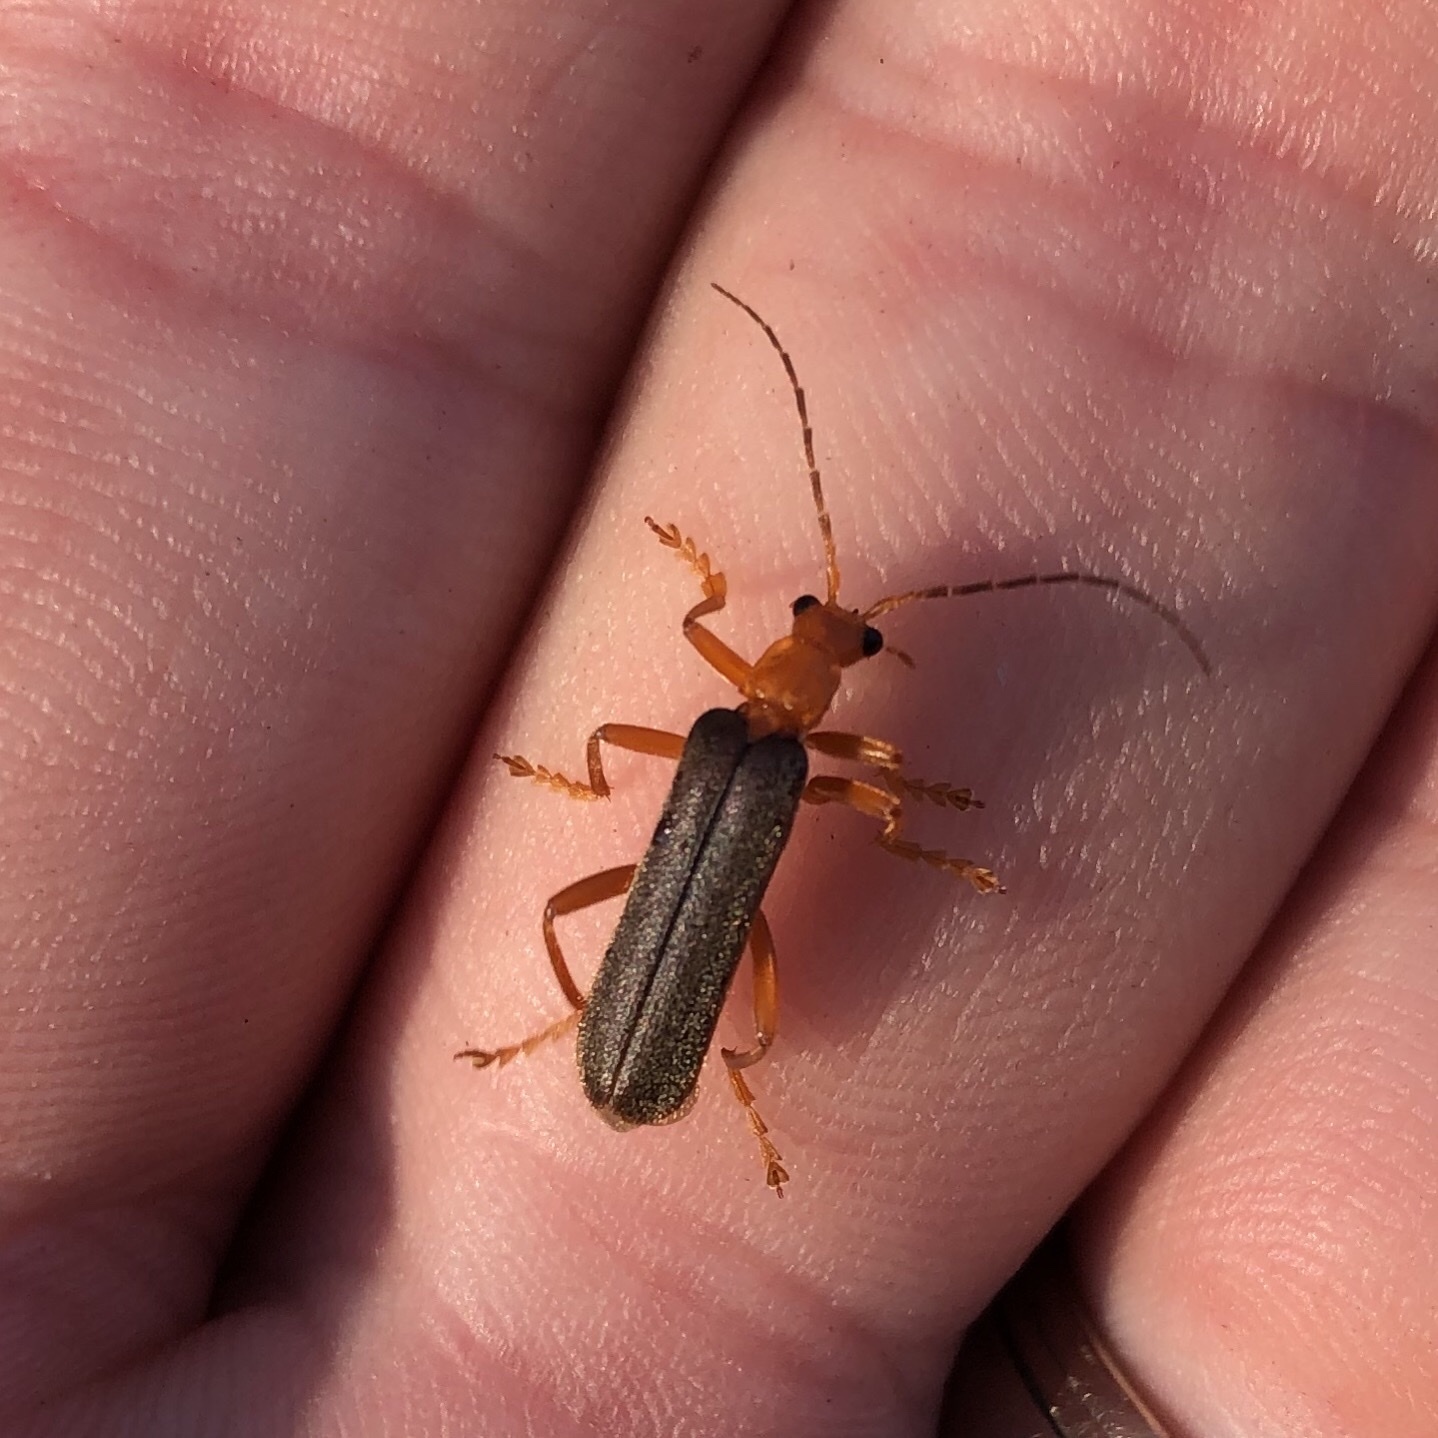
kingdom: Animalia
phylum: Arthropoda
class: Insecta
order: Coleoptera
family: Cantharidae
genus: Pacificanthia
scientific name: Pacificanthia rotundicollis
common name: Brown leatherwing beetle
